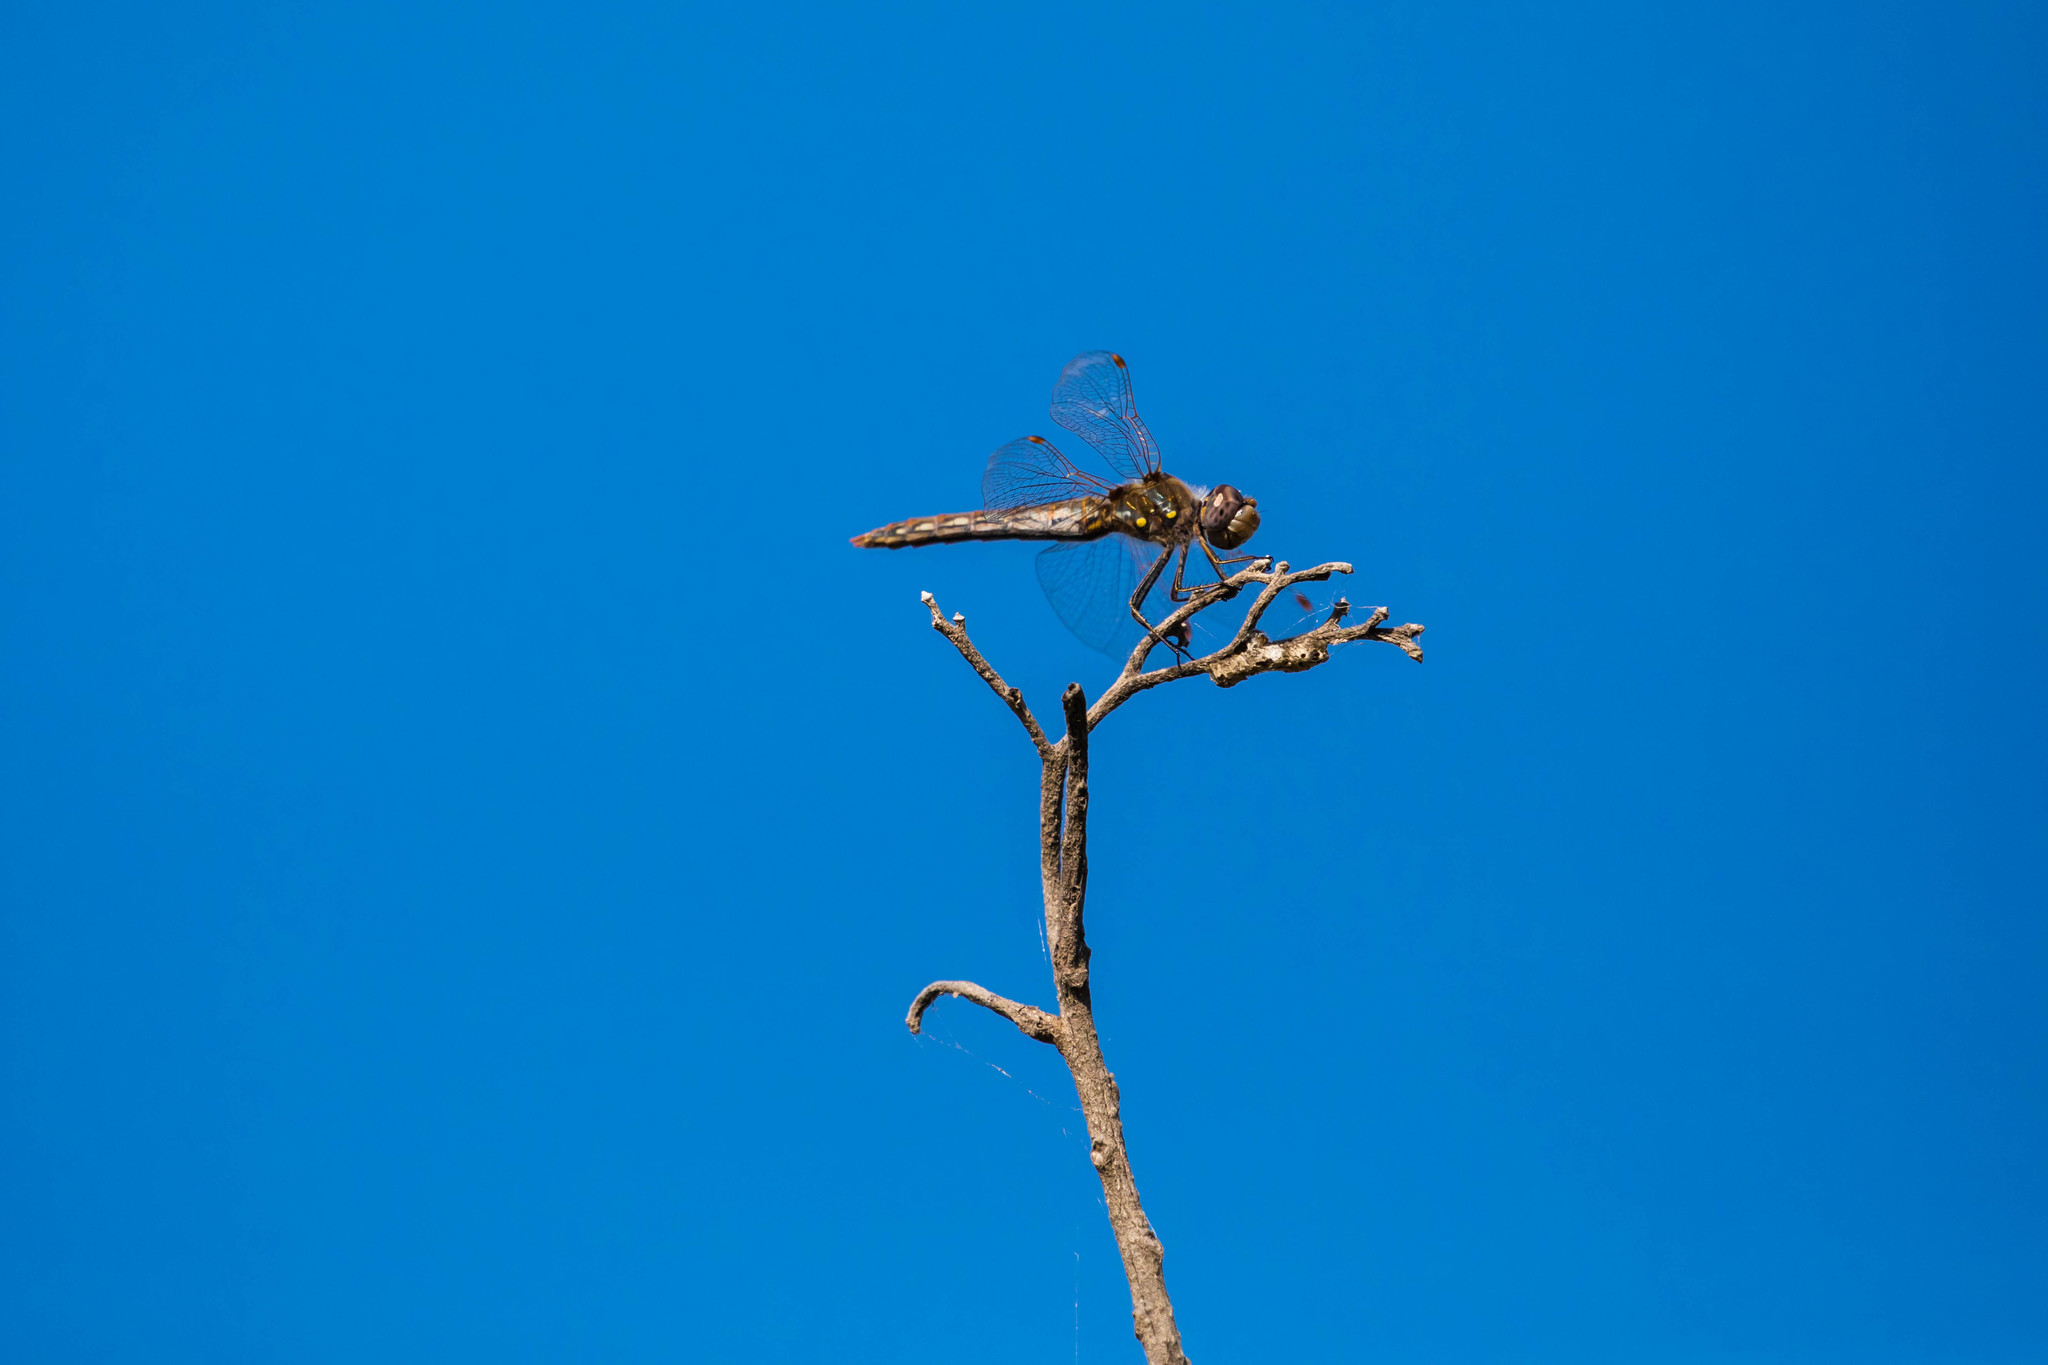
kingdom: Animalia
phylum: Arthropoda
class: Insecta
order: Odonata
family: Libellulidae
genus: Sympetrum
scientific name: Sympetrum corruptum
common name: Variegated meadowhawk
